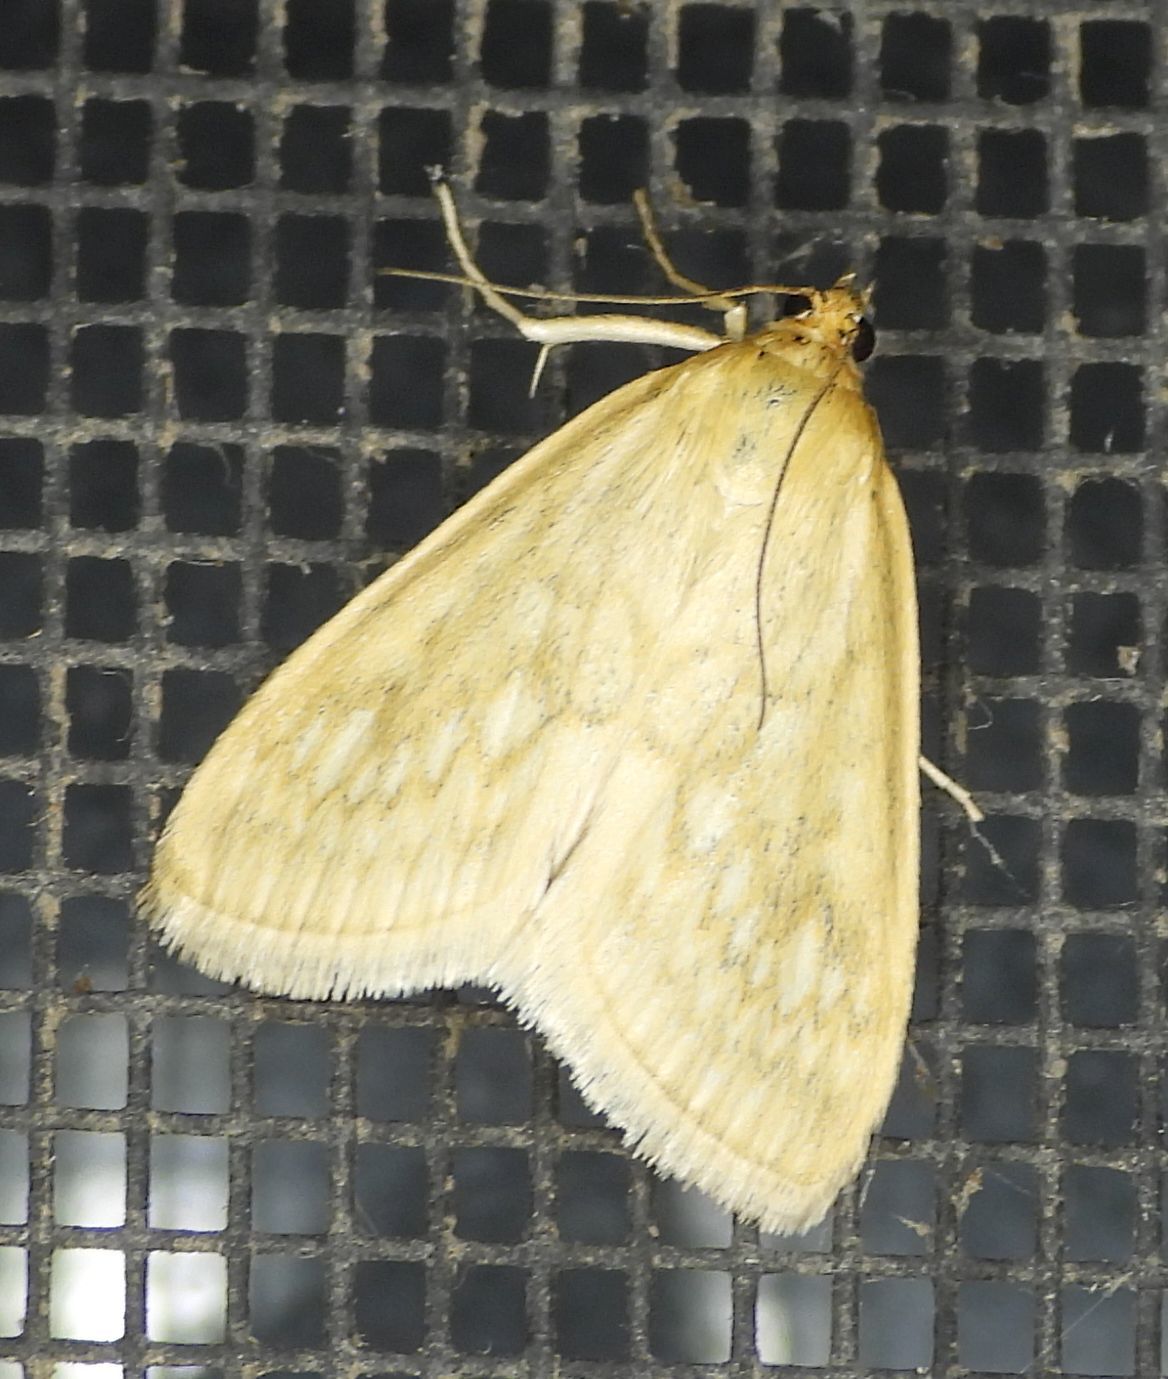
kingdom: Animalia
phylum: Arthropoda
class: Insecta
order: Lepidoptera
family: Crambidae
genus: Sitochroa
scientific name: Sitochroa chortalis
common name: Dimorphic sitochroa moth
